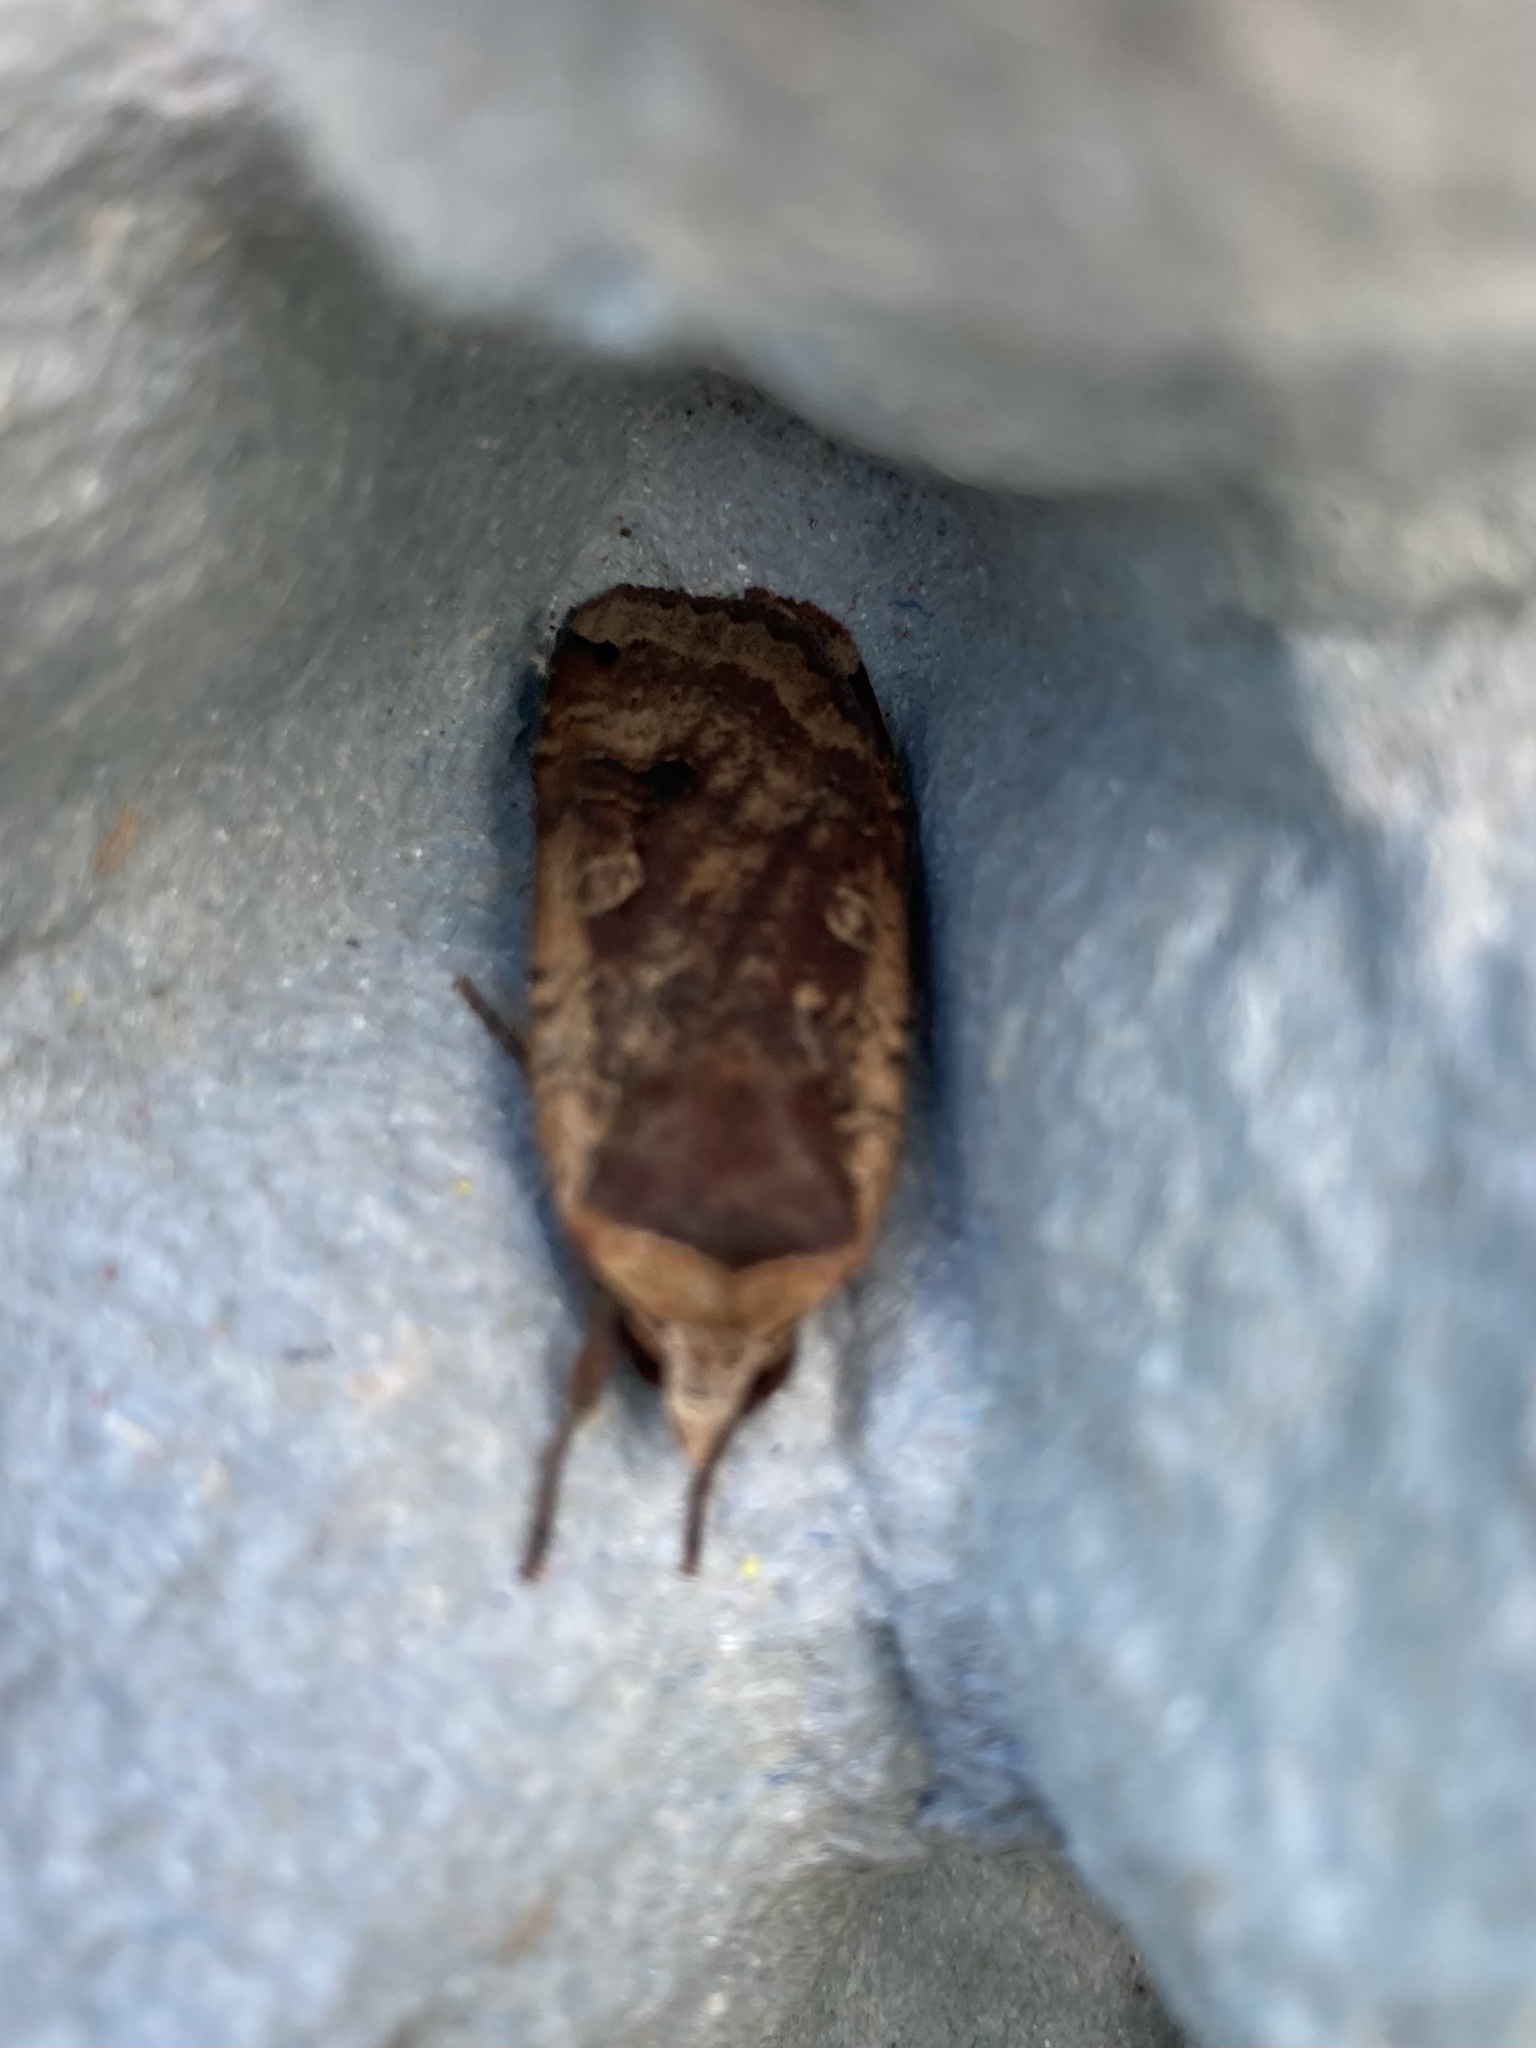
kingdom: Animalia
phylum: Arthropoda
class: Insecta
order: Lepidoptera
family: Noctuidae
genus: Noctua
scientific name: Noctua pronuba
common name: Large yellow underwing
